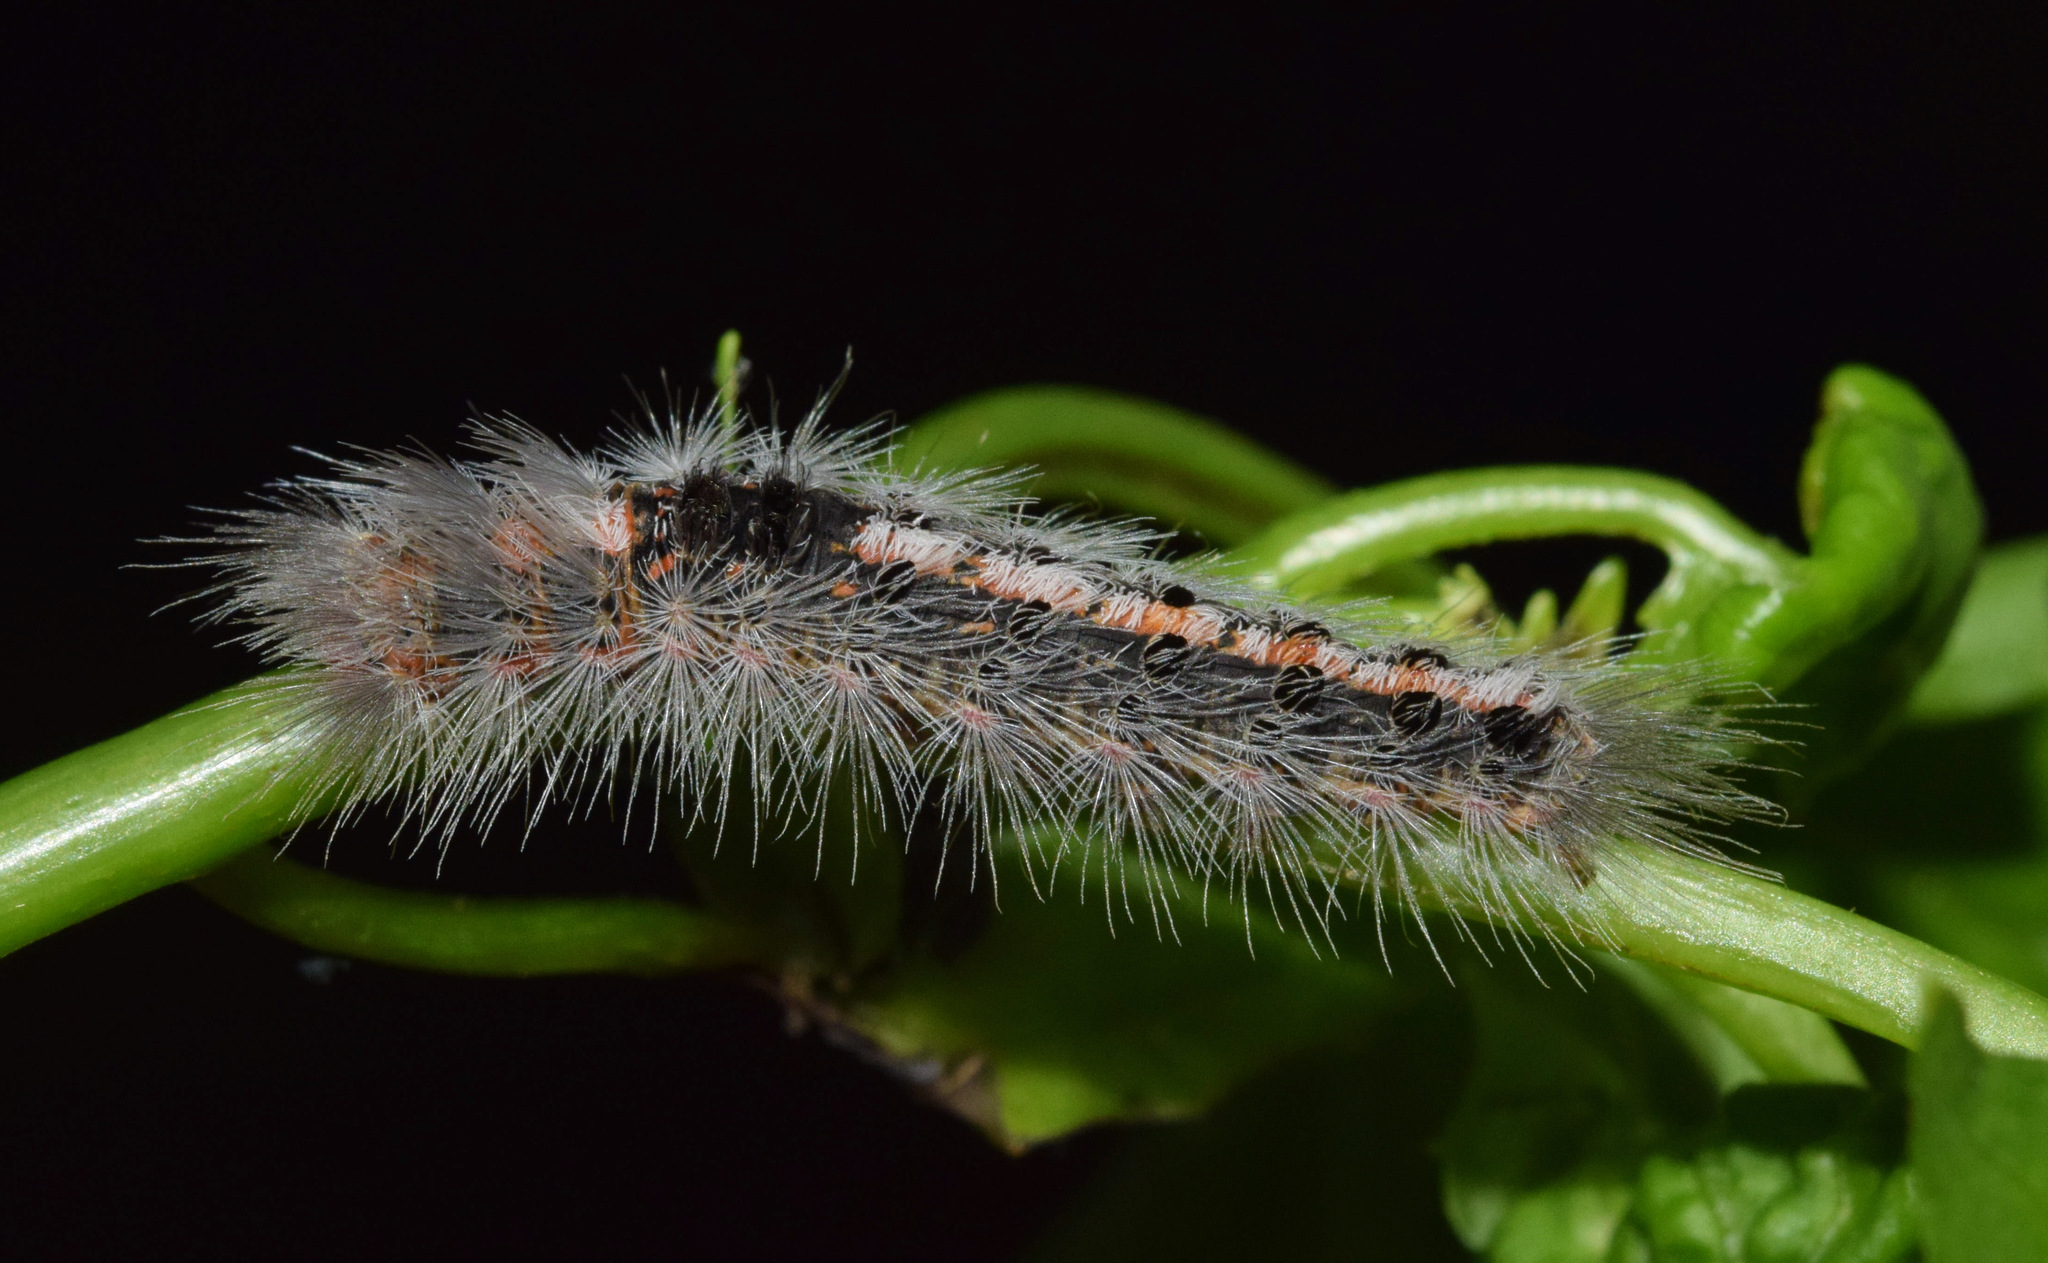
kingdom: Animalia
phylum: Arthropoda
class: Insecta
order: Lepidoptera
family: Erebidae
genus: Euproctis
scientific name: Euproctis punctifera
